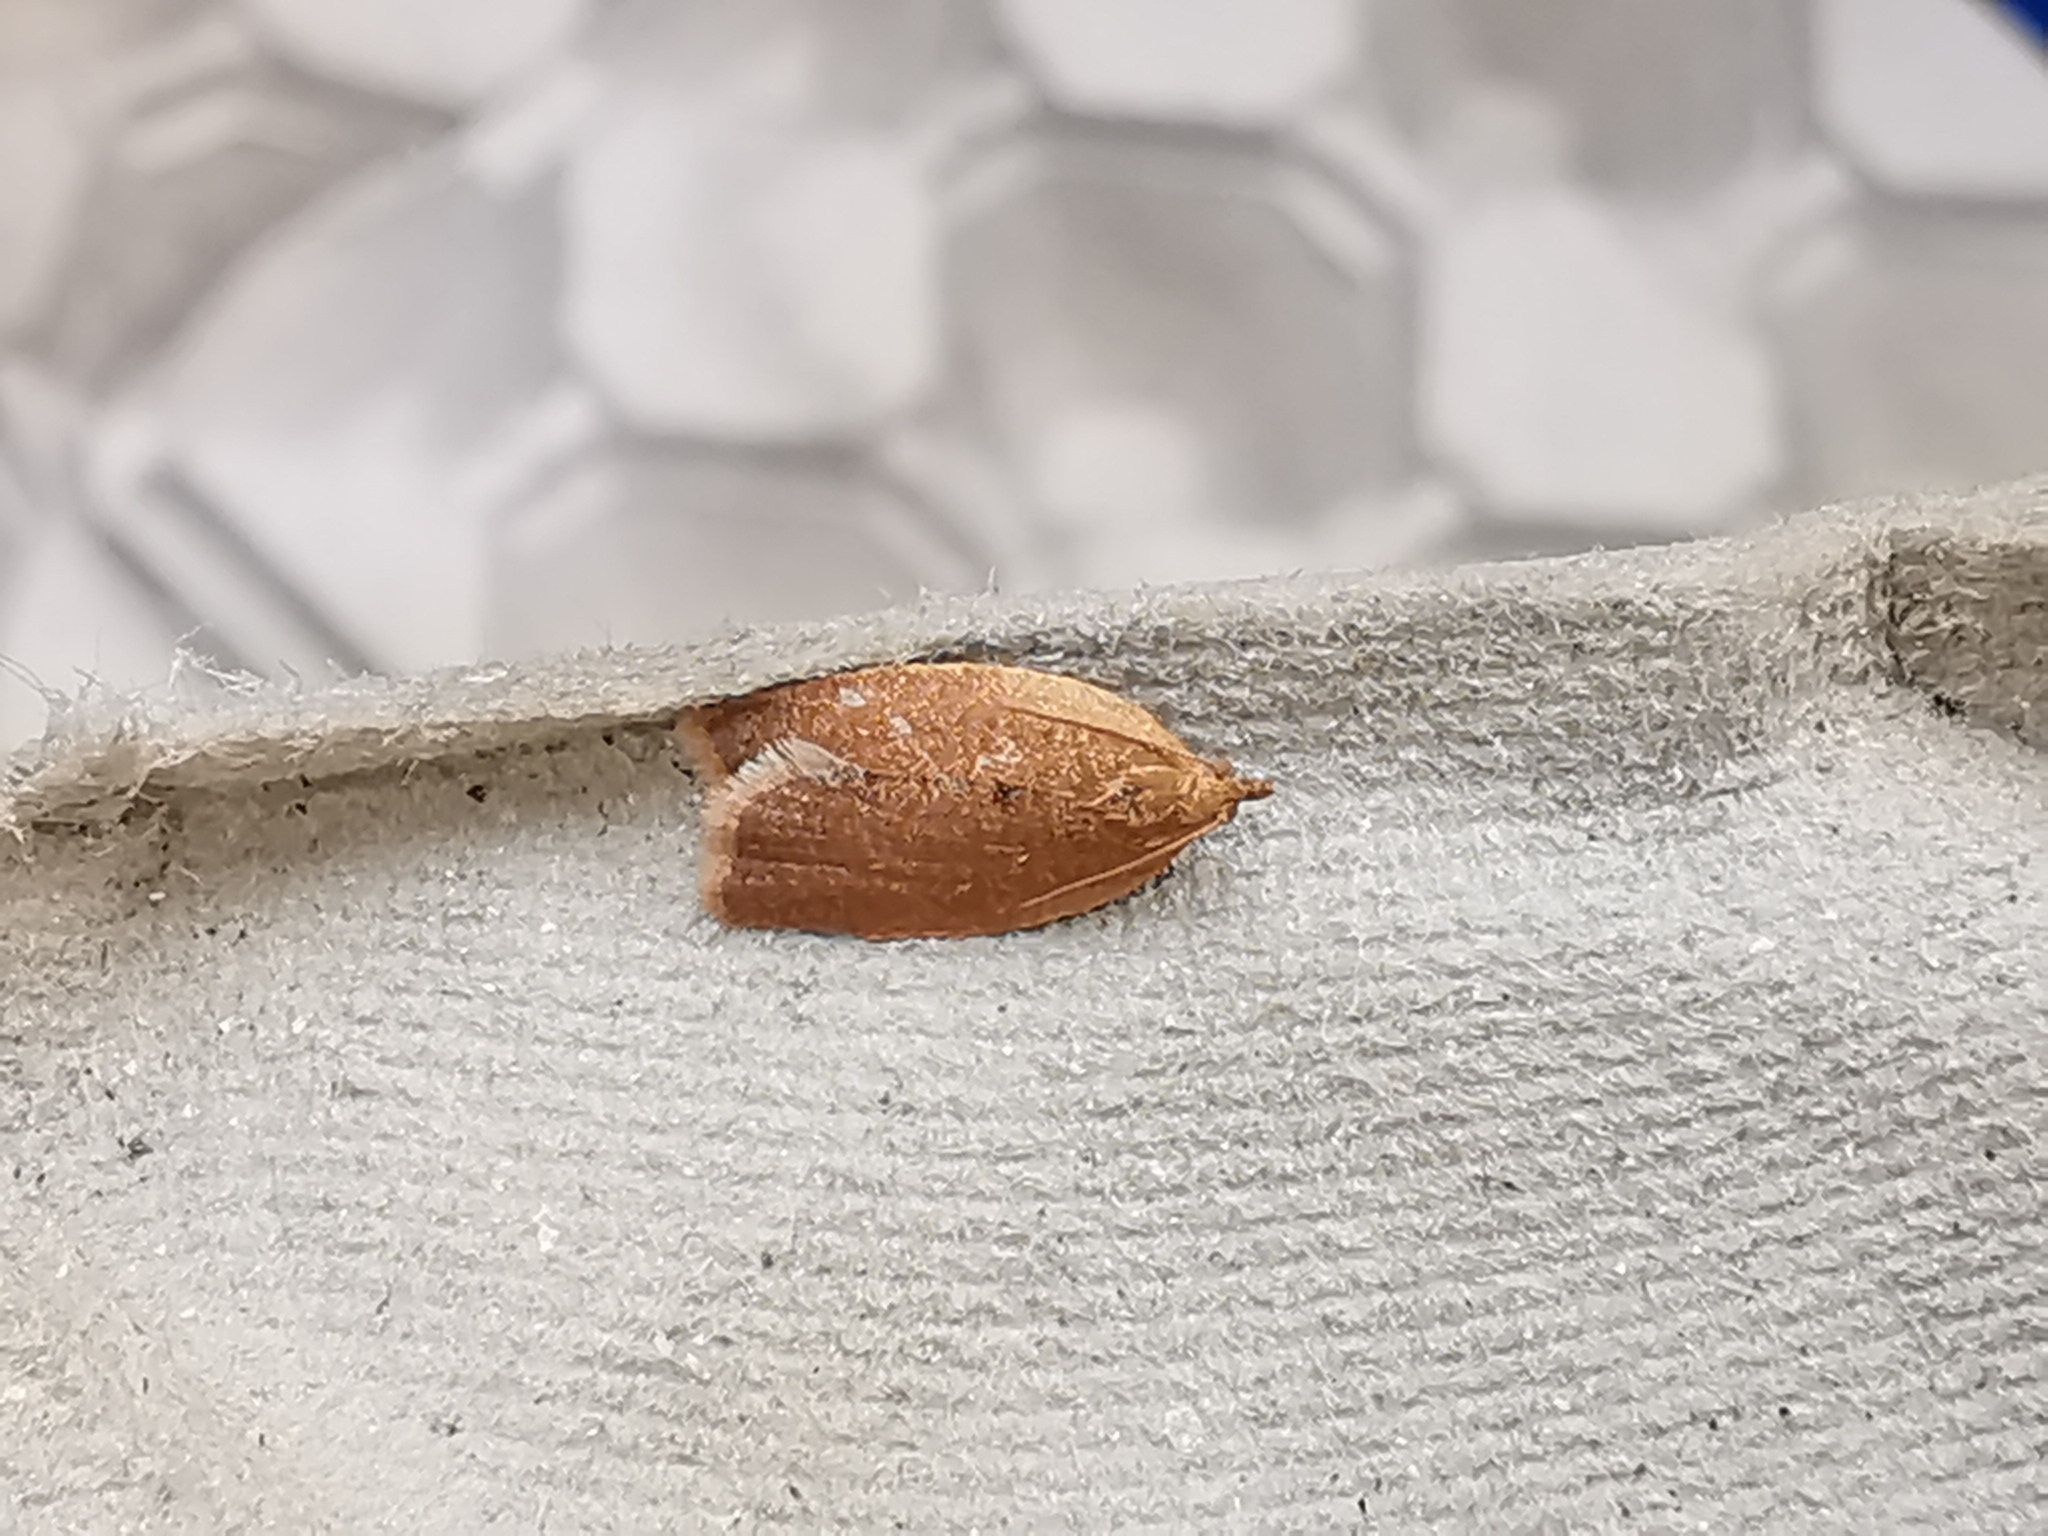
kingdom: Animalia
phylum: Arthropoda
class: Insecta
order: Lepidoptera
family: Tortricidae
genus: Clepsis
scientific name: Clepsis consimilana
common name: Privet tortrix
